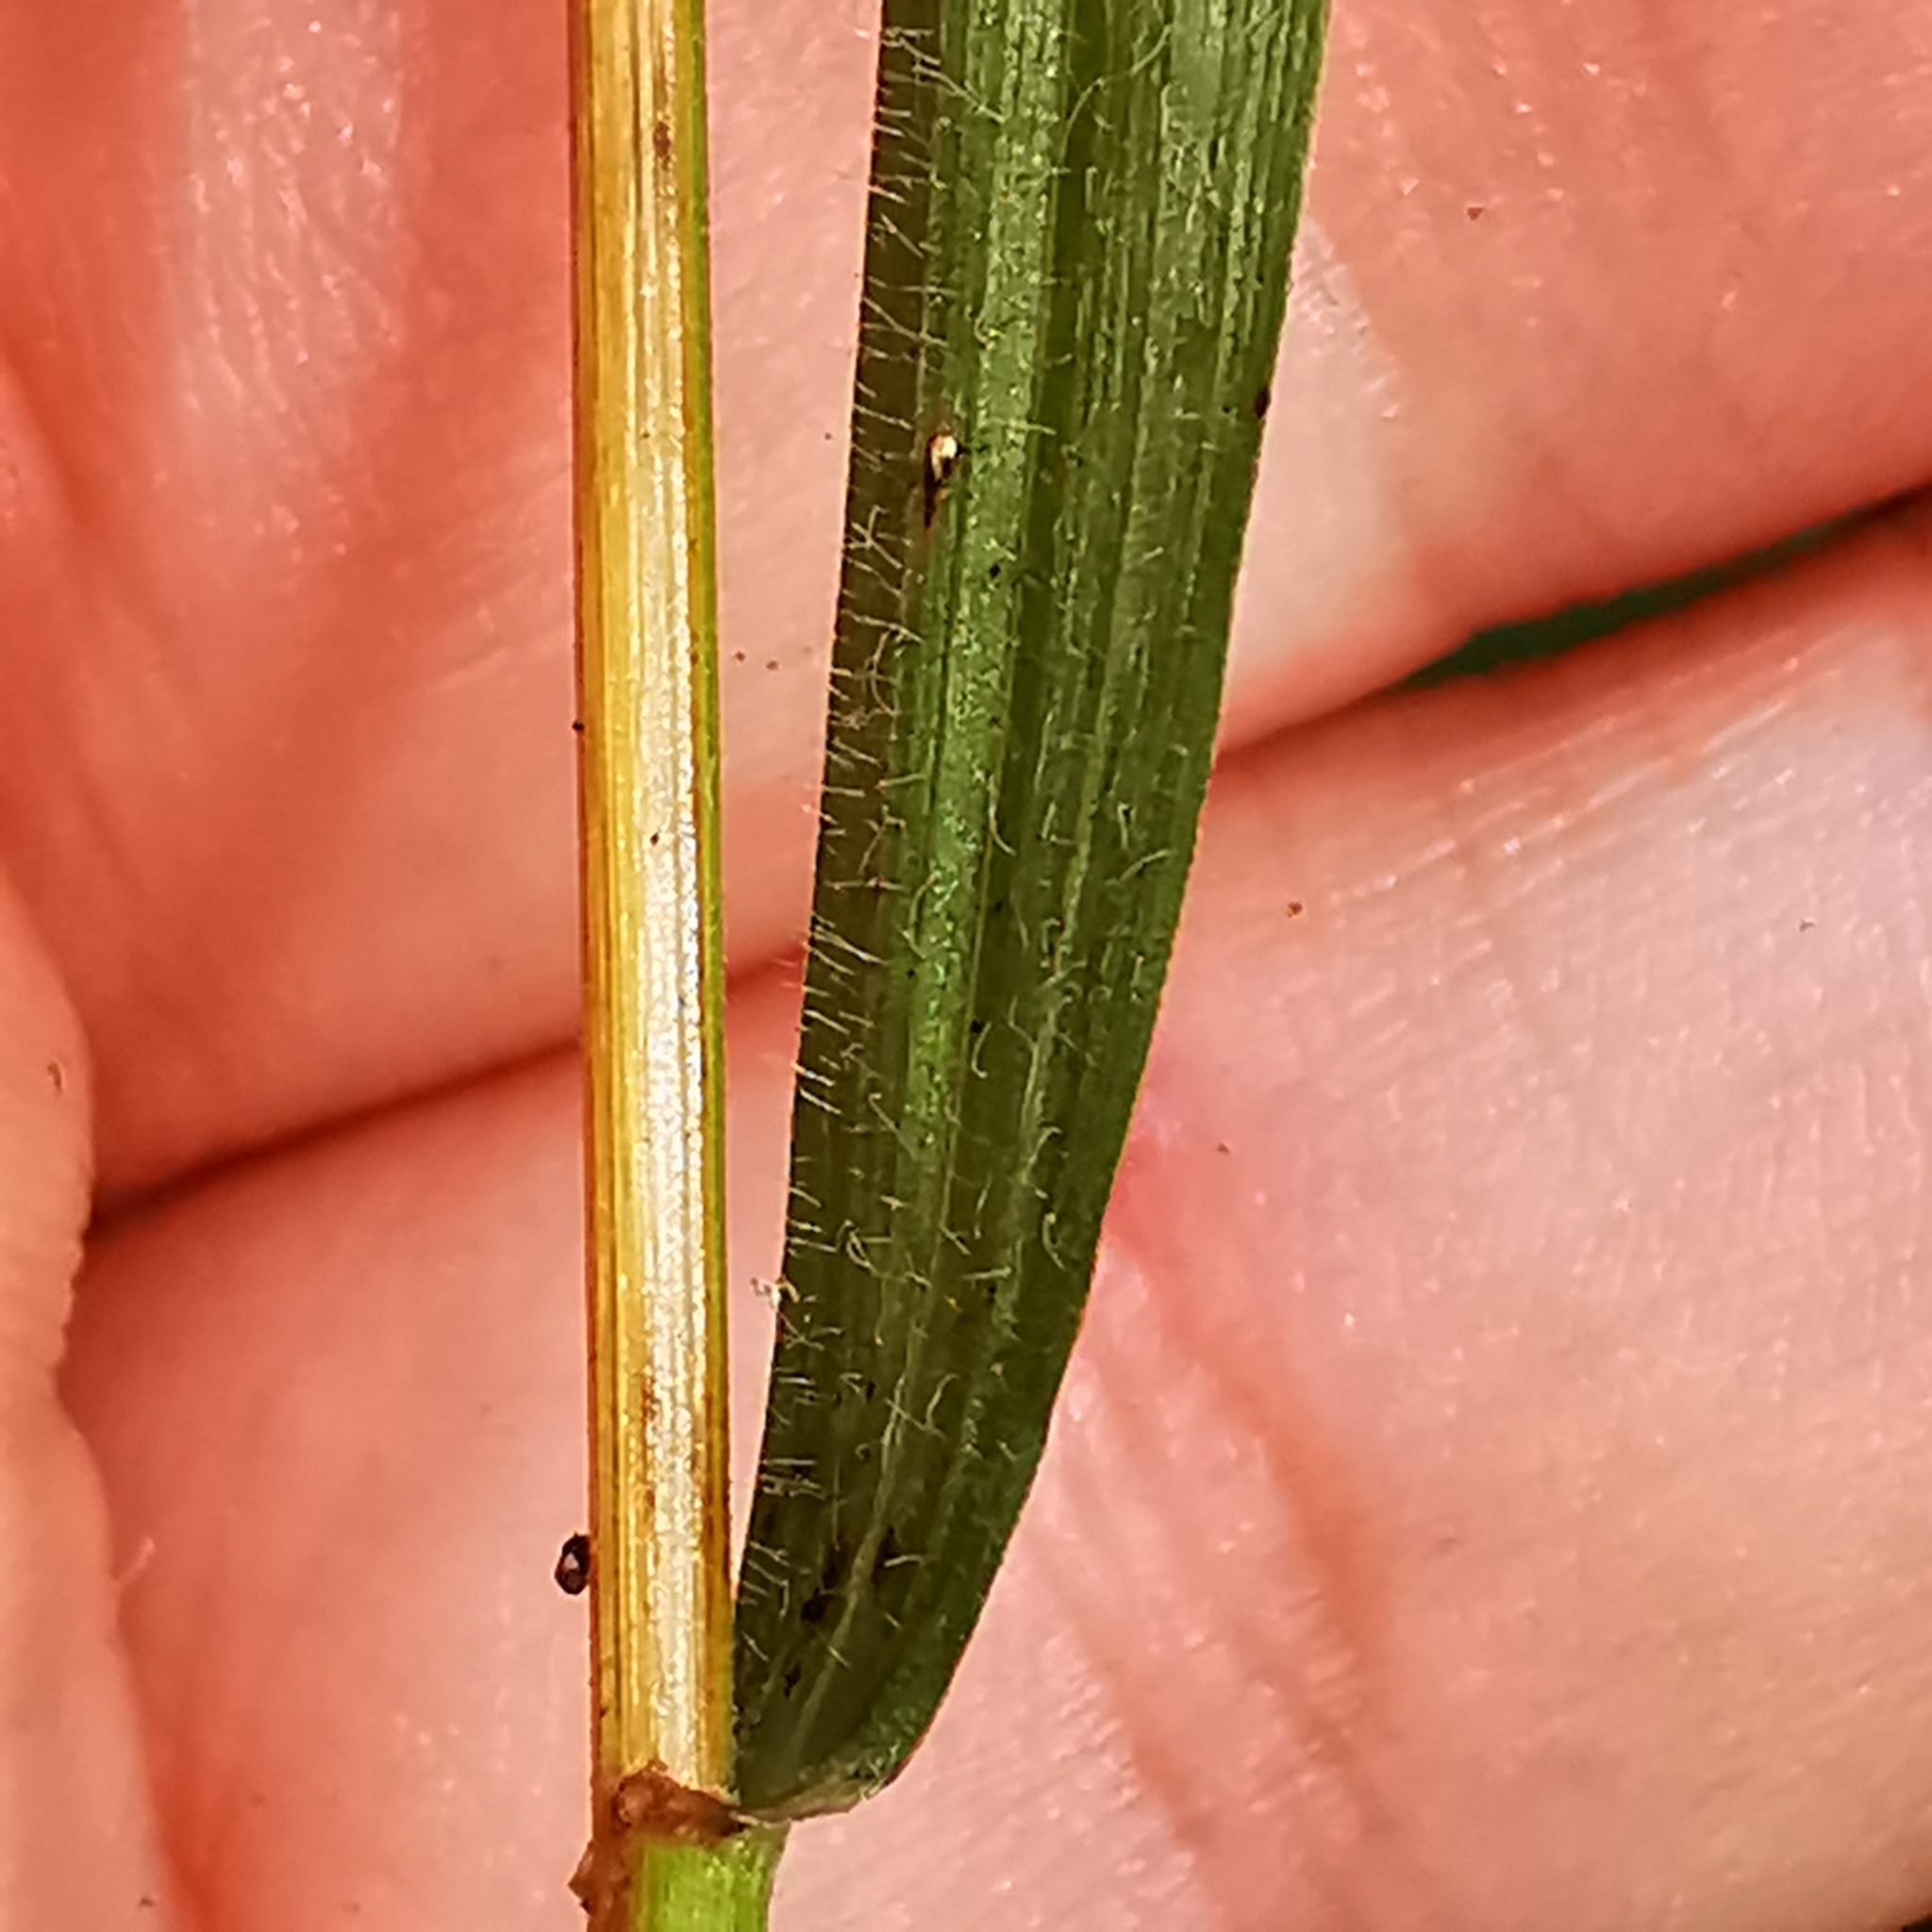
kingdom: Plantae
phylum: Tracheophyta
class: Liliopsida
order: Poales
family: Poaceae
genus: Elymus
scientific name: Elymus caninus
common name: Bearded couch
